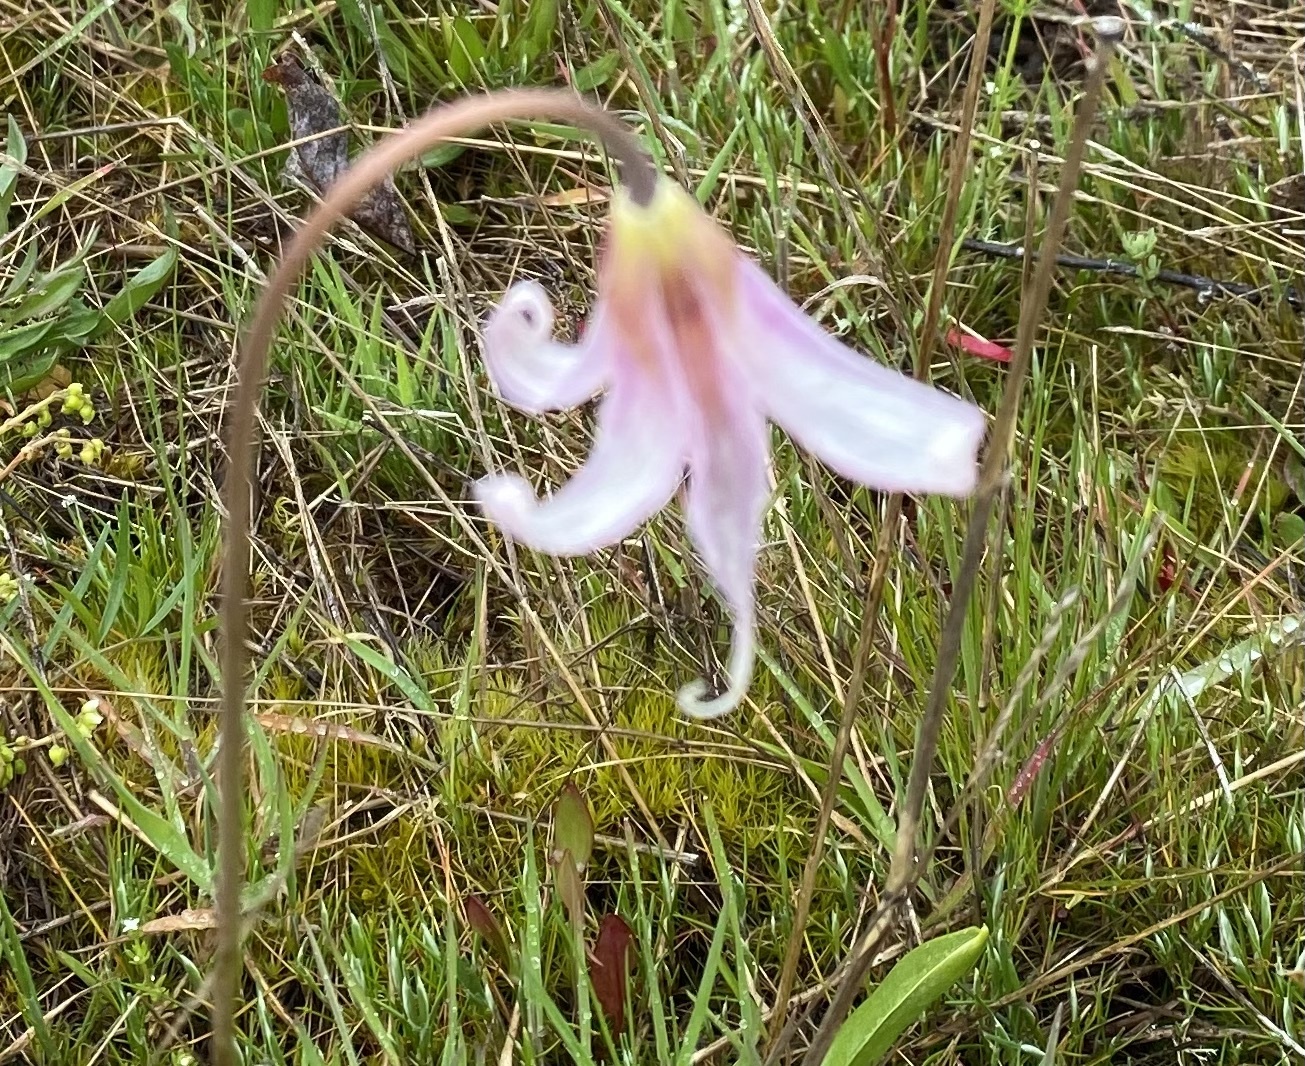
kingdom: Plantae
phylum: Tracheophyta
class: Liliopsida
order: Liliales
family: Liliaceae
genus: Erythronium
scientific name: Erythronium oregonum
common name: Giant adder's-tongue
